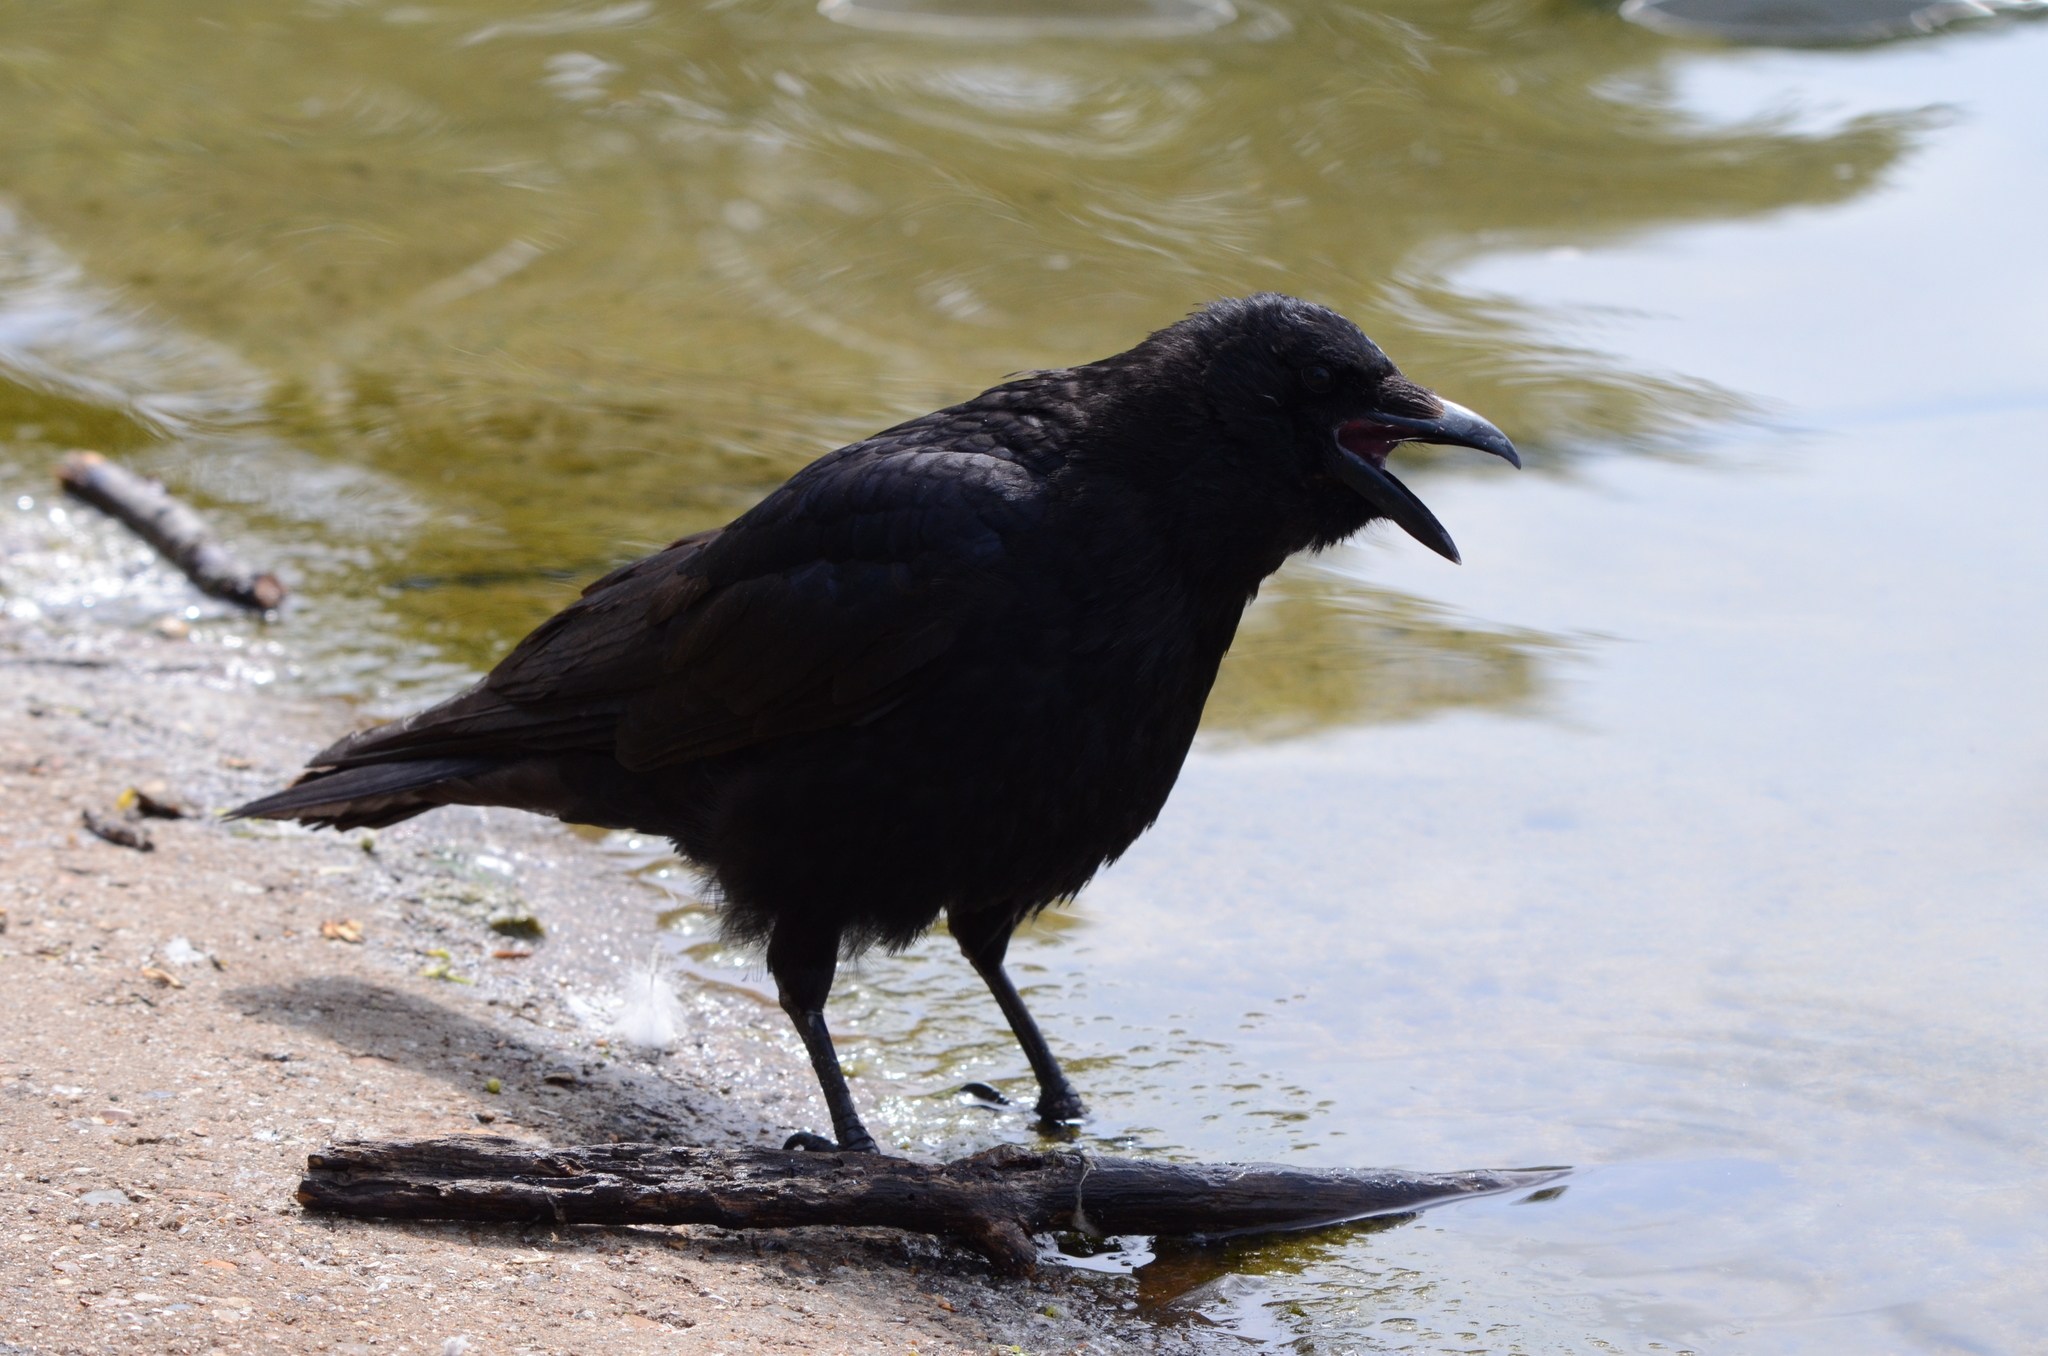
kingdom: Animalia
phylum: Chordata
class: Aves
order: Passeriformes
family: Corvidae
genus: Corvus
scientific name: Corvus corone
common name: Carrion crow
